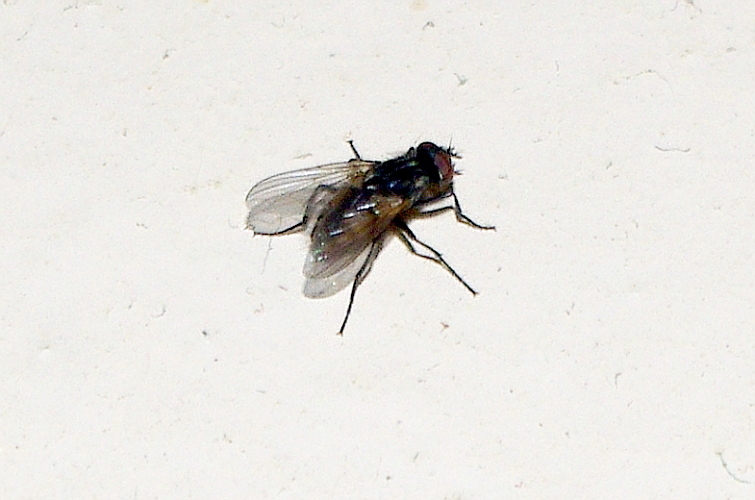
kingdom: Animalia
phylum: Arthropoda
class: Insecta
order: Diptera
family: Muscidae
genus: Musca
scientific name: Musca domestica
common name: House fly
